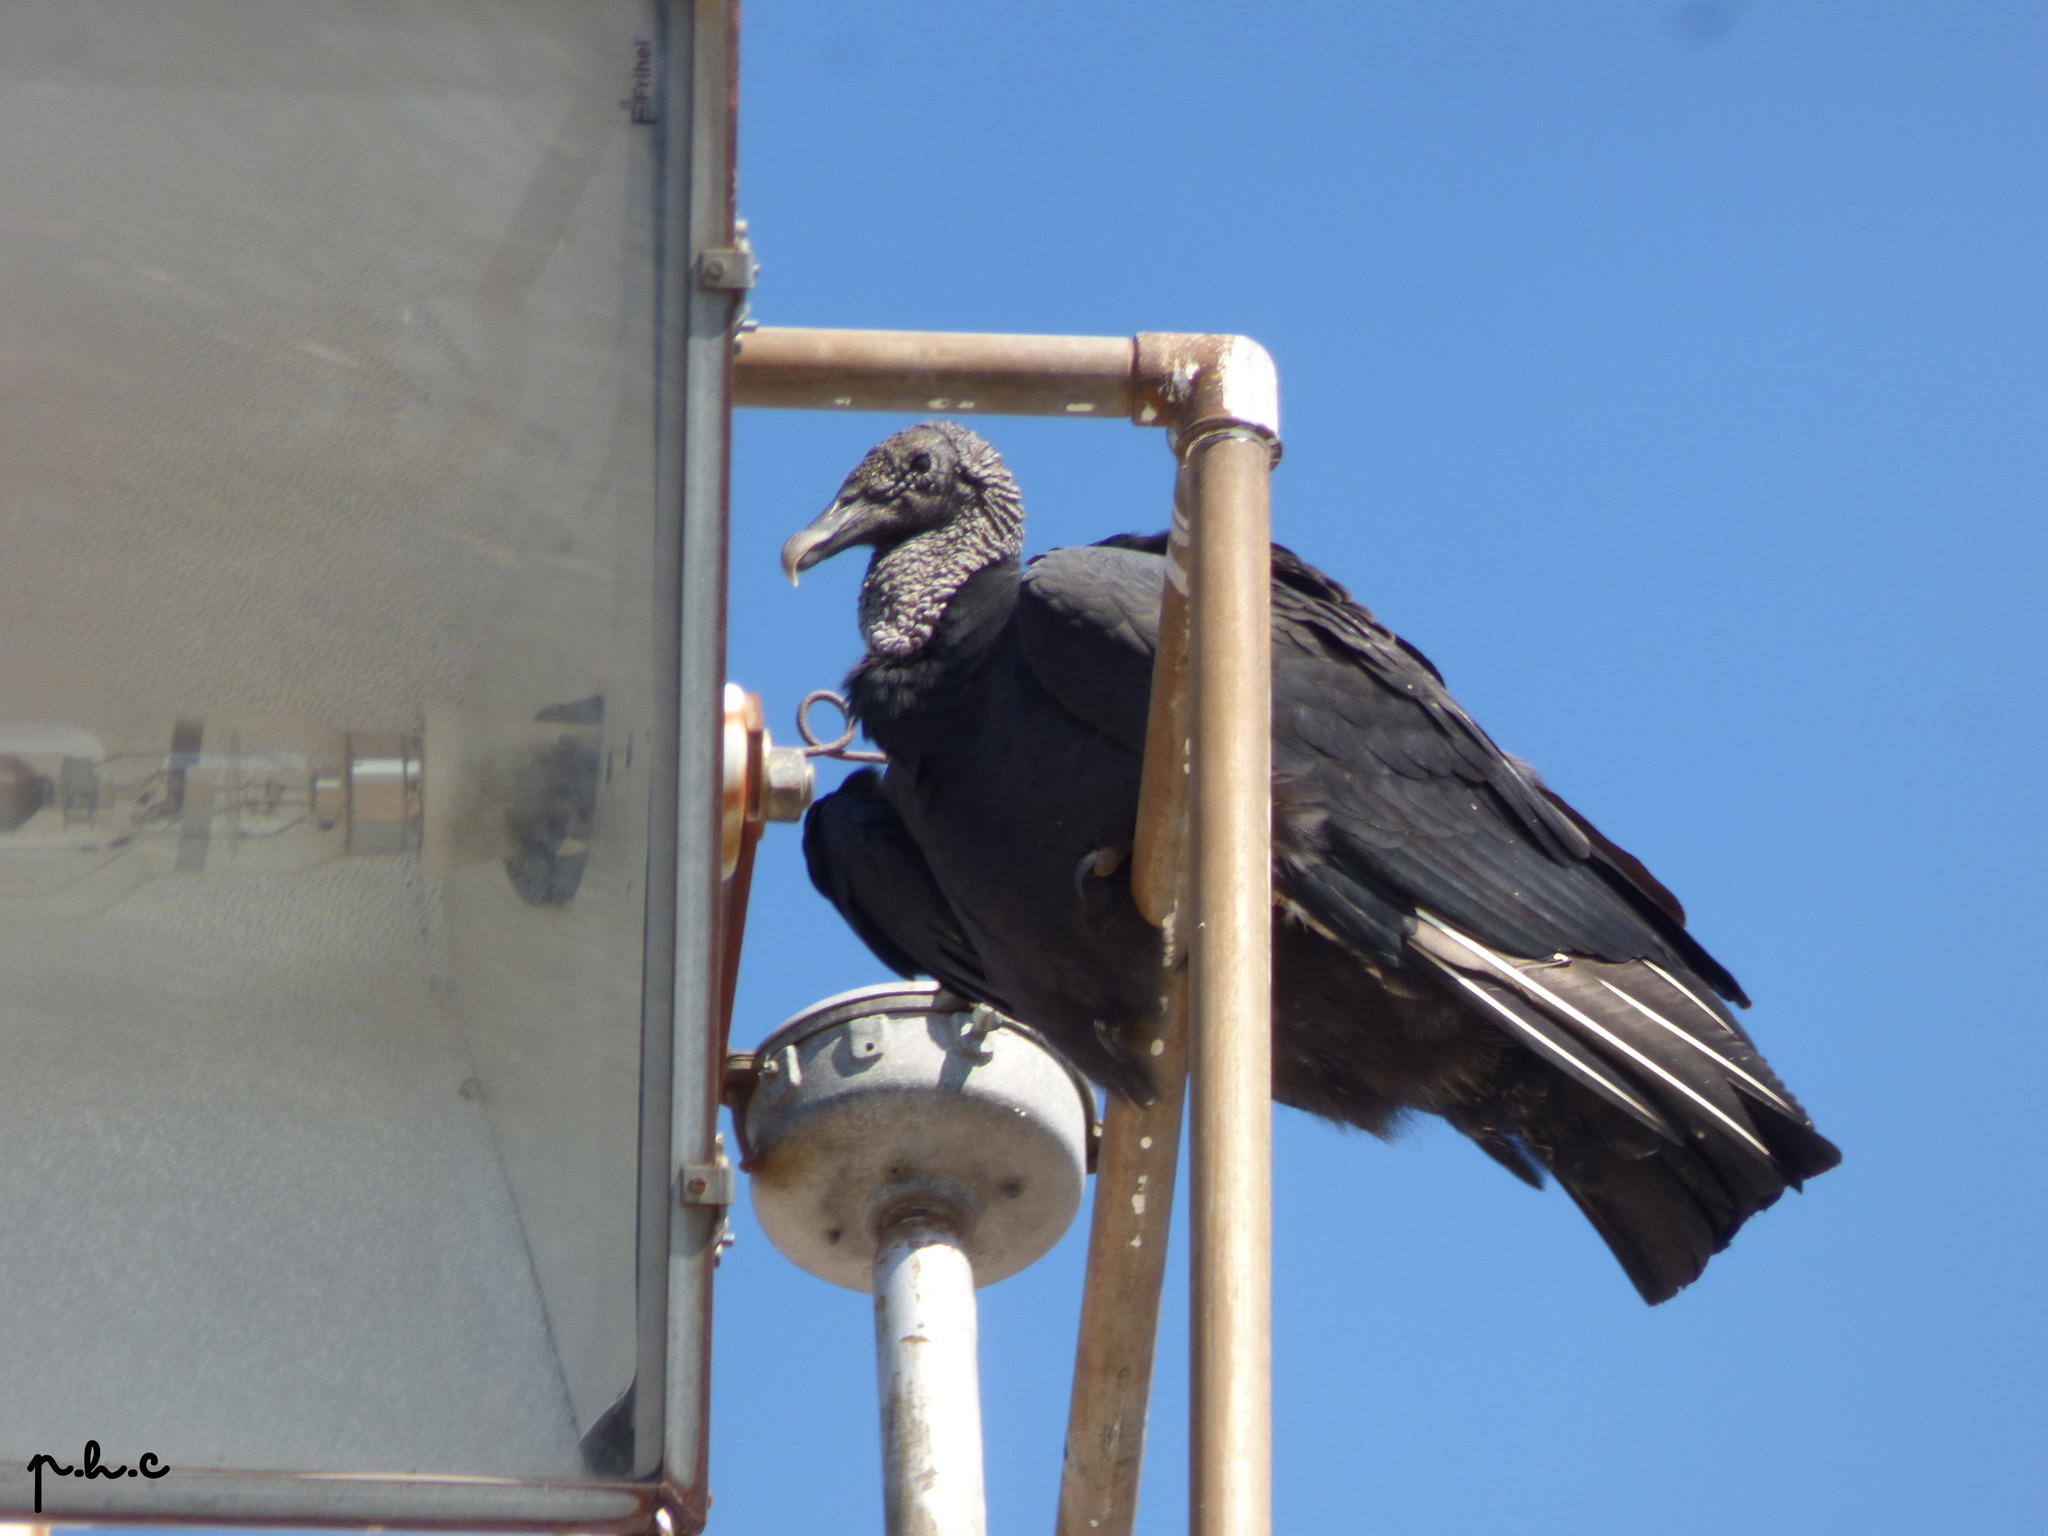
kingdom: Animalia
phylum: Chordata
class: Aves
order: Accipitriformes
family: Cathartidae
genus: Coragyps
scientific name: Coragyps atratus
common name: Black vulture
